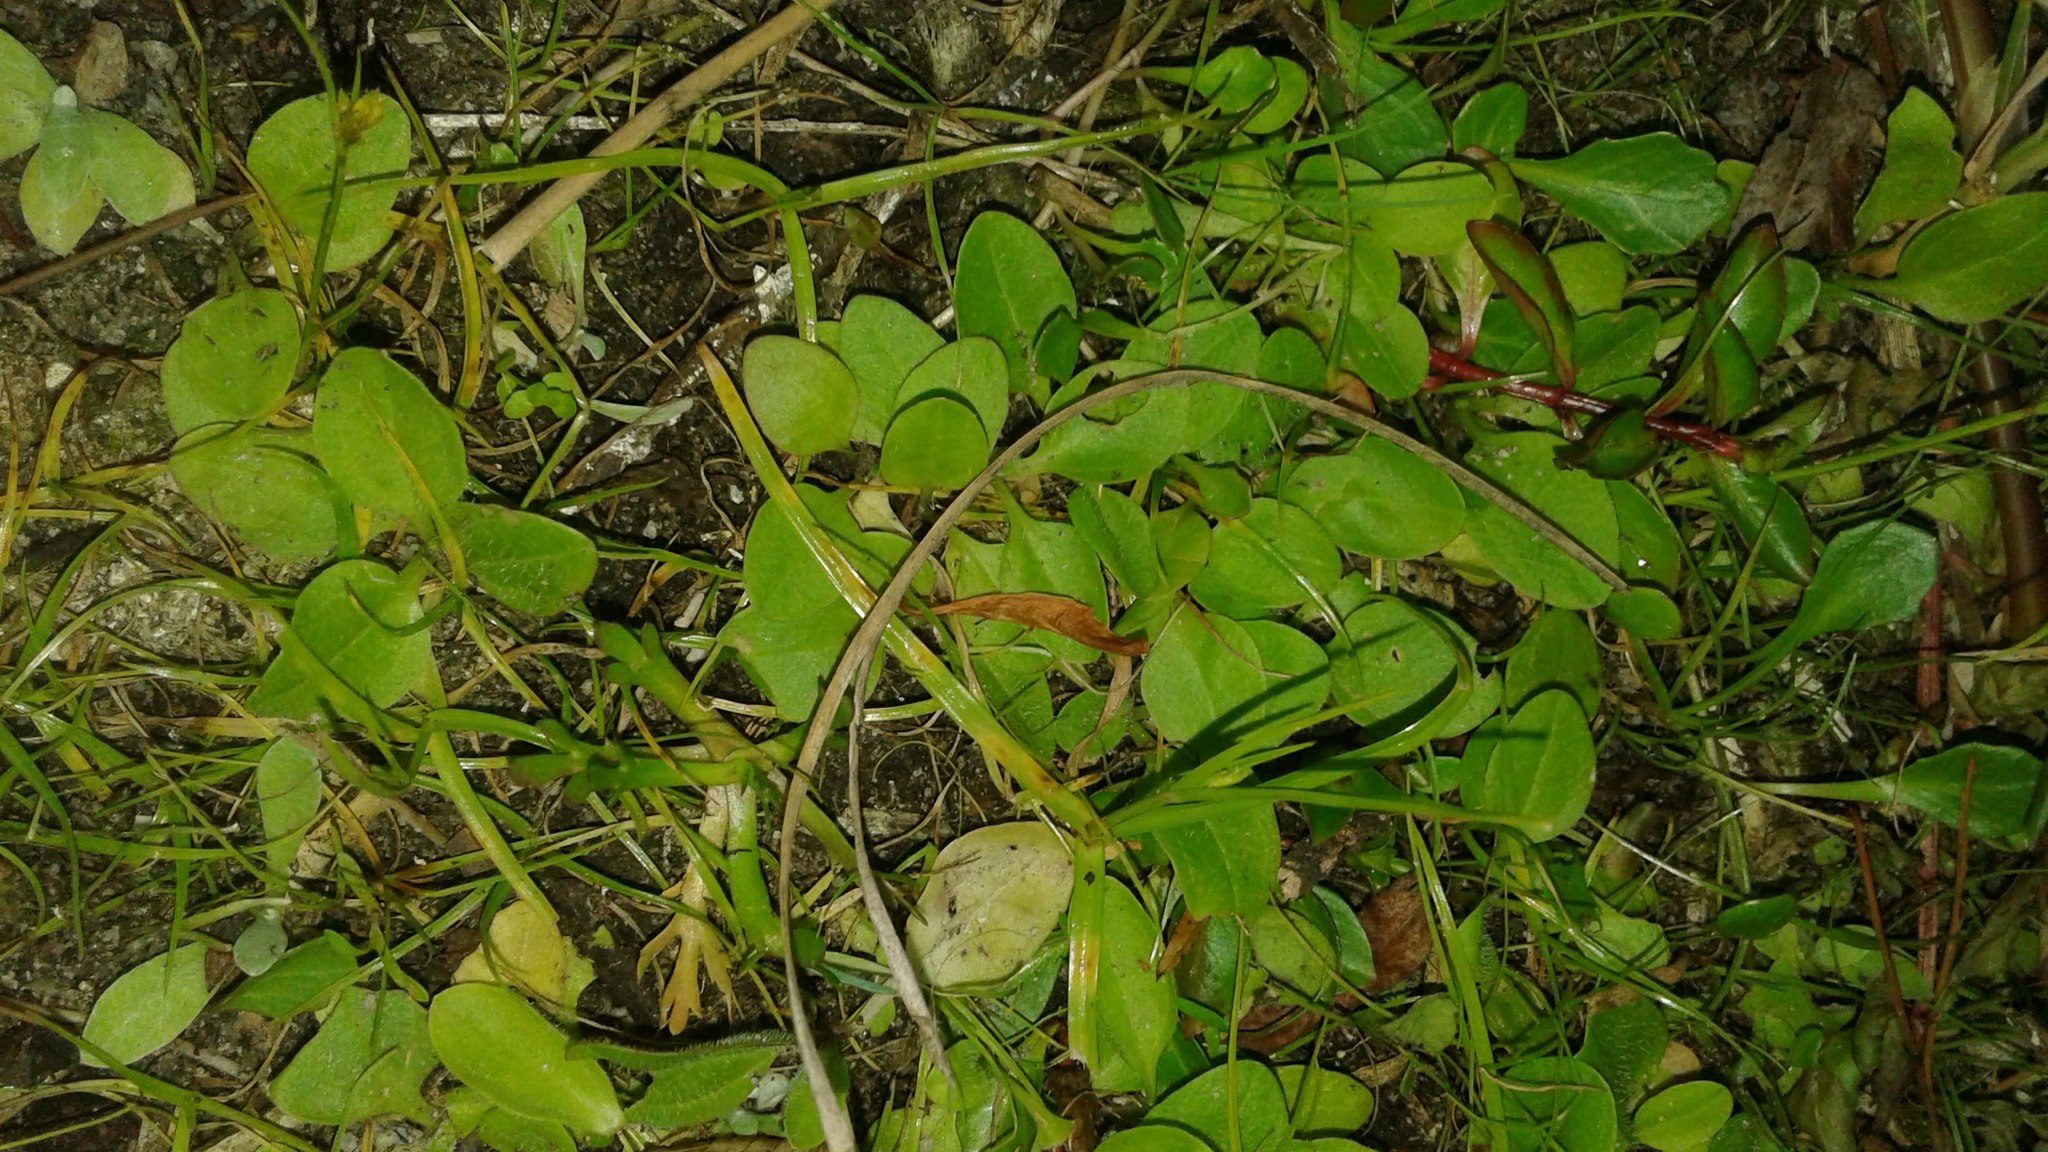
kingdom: Plantae
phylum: Tracheophyta
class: Magnoliopsida
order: Asterales
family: Campanulaceae
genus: Lobelia
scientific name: Lobelia anceps
